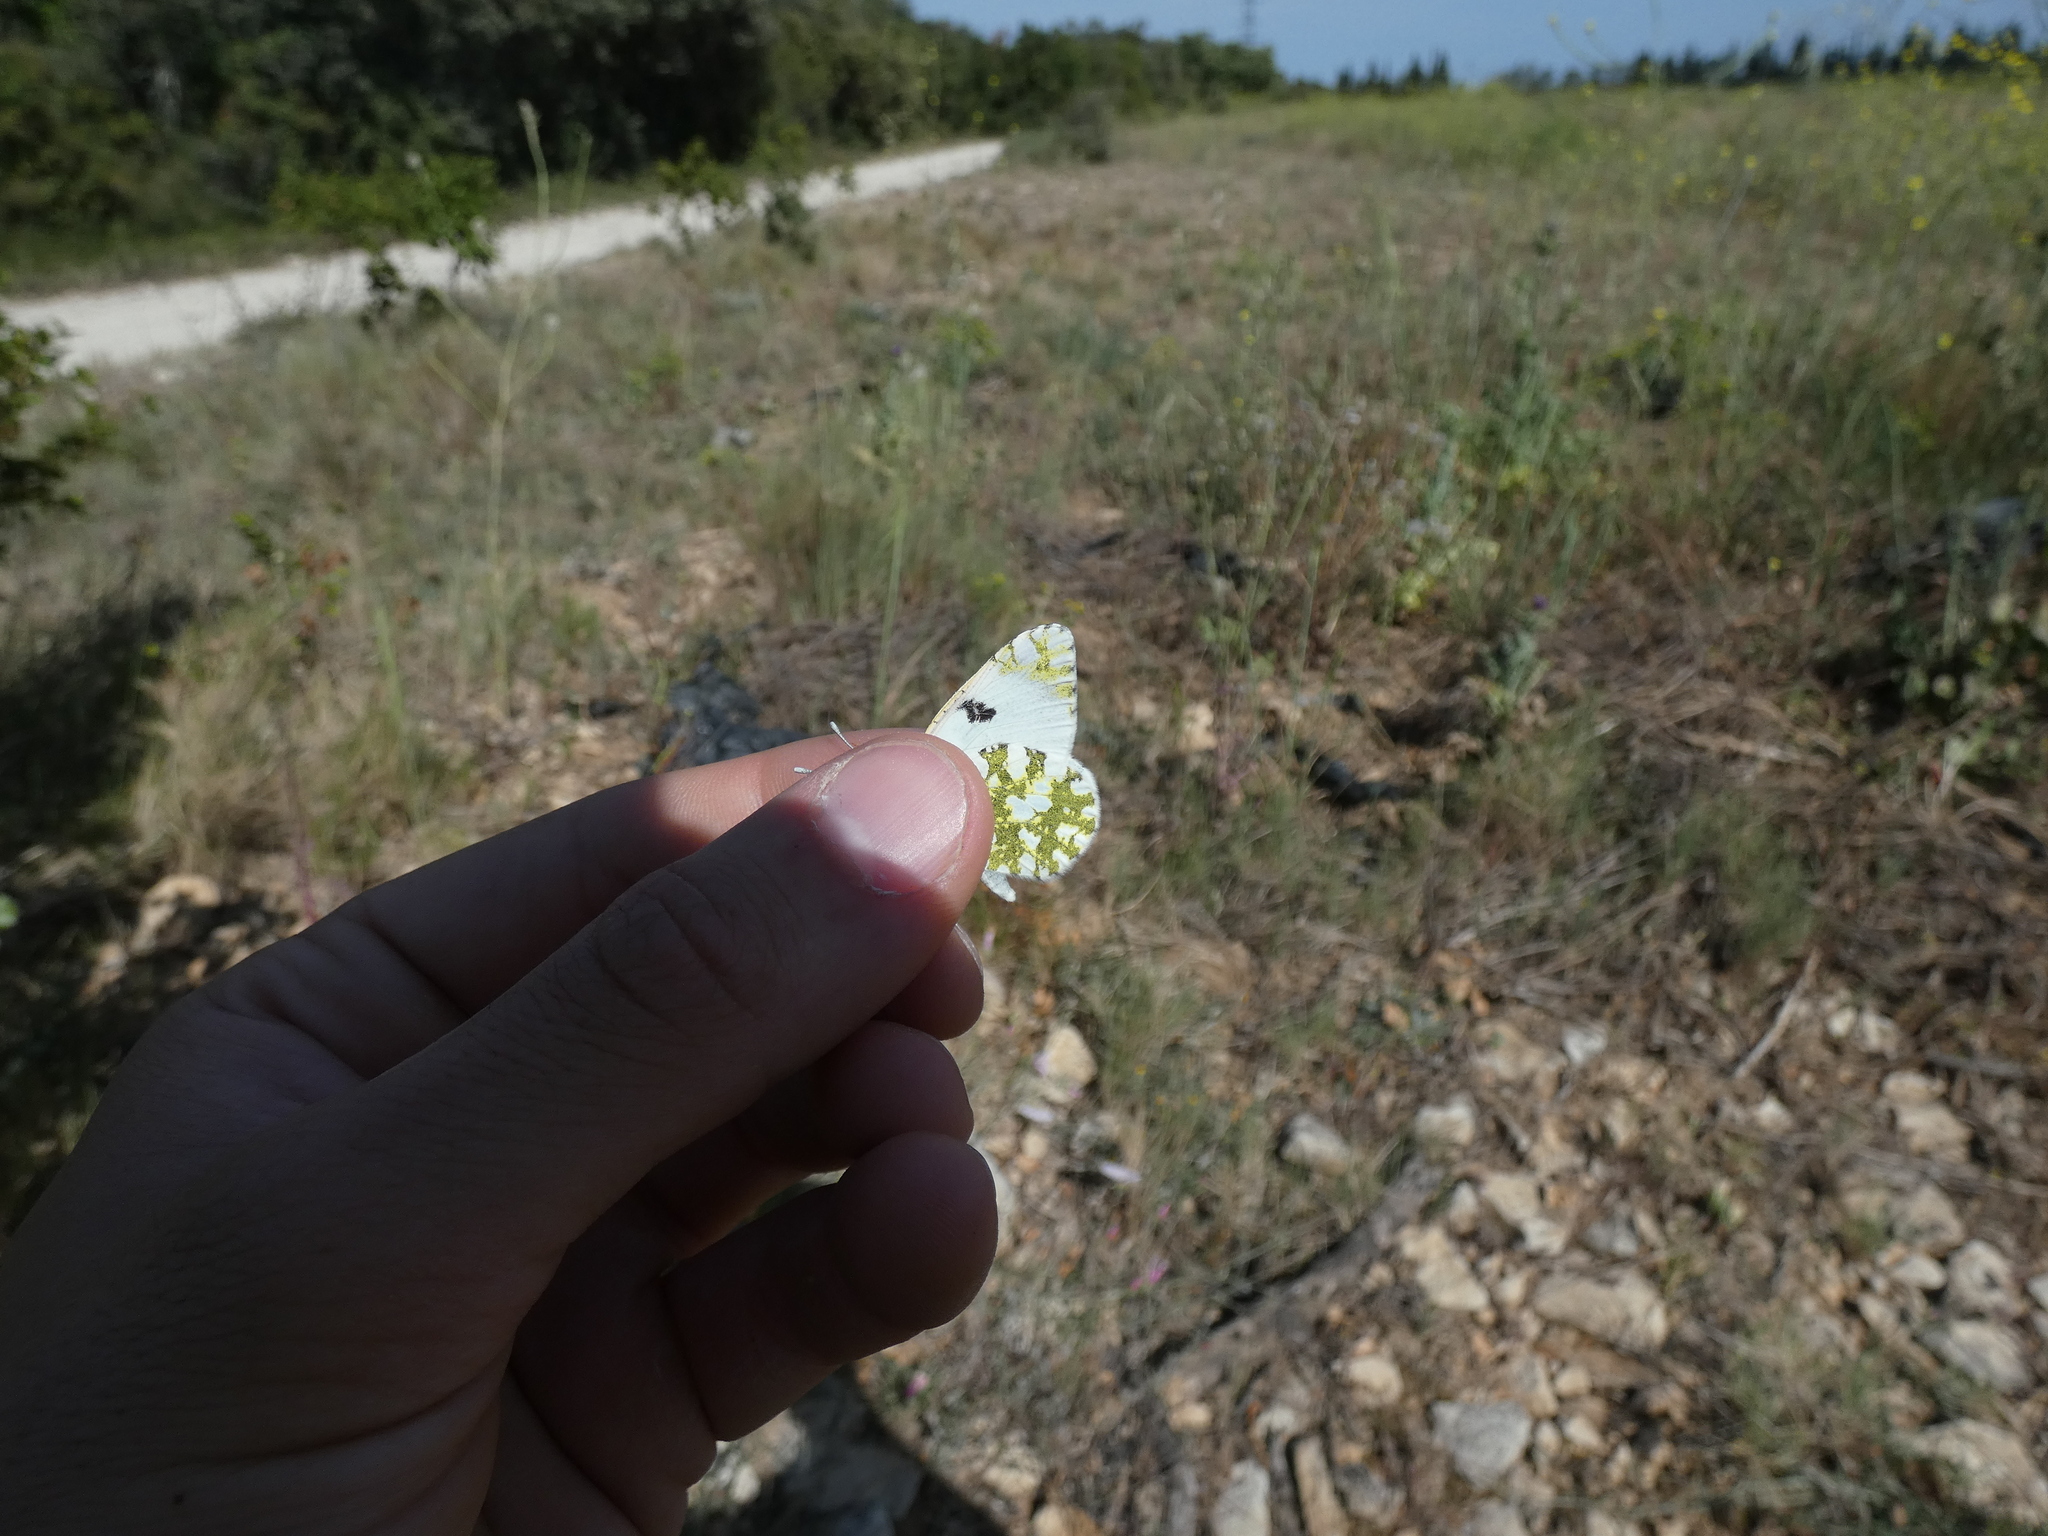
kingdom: Animalia
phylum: Arthropoda
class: Insecta
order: Lepidoptera
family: Pieridae
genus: Euchloe
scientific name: Euchloe crameri
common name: Western dappled white
